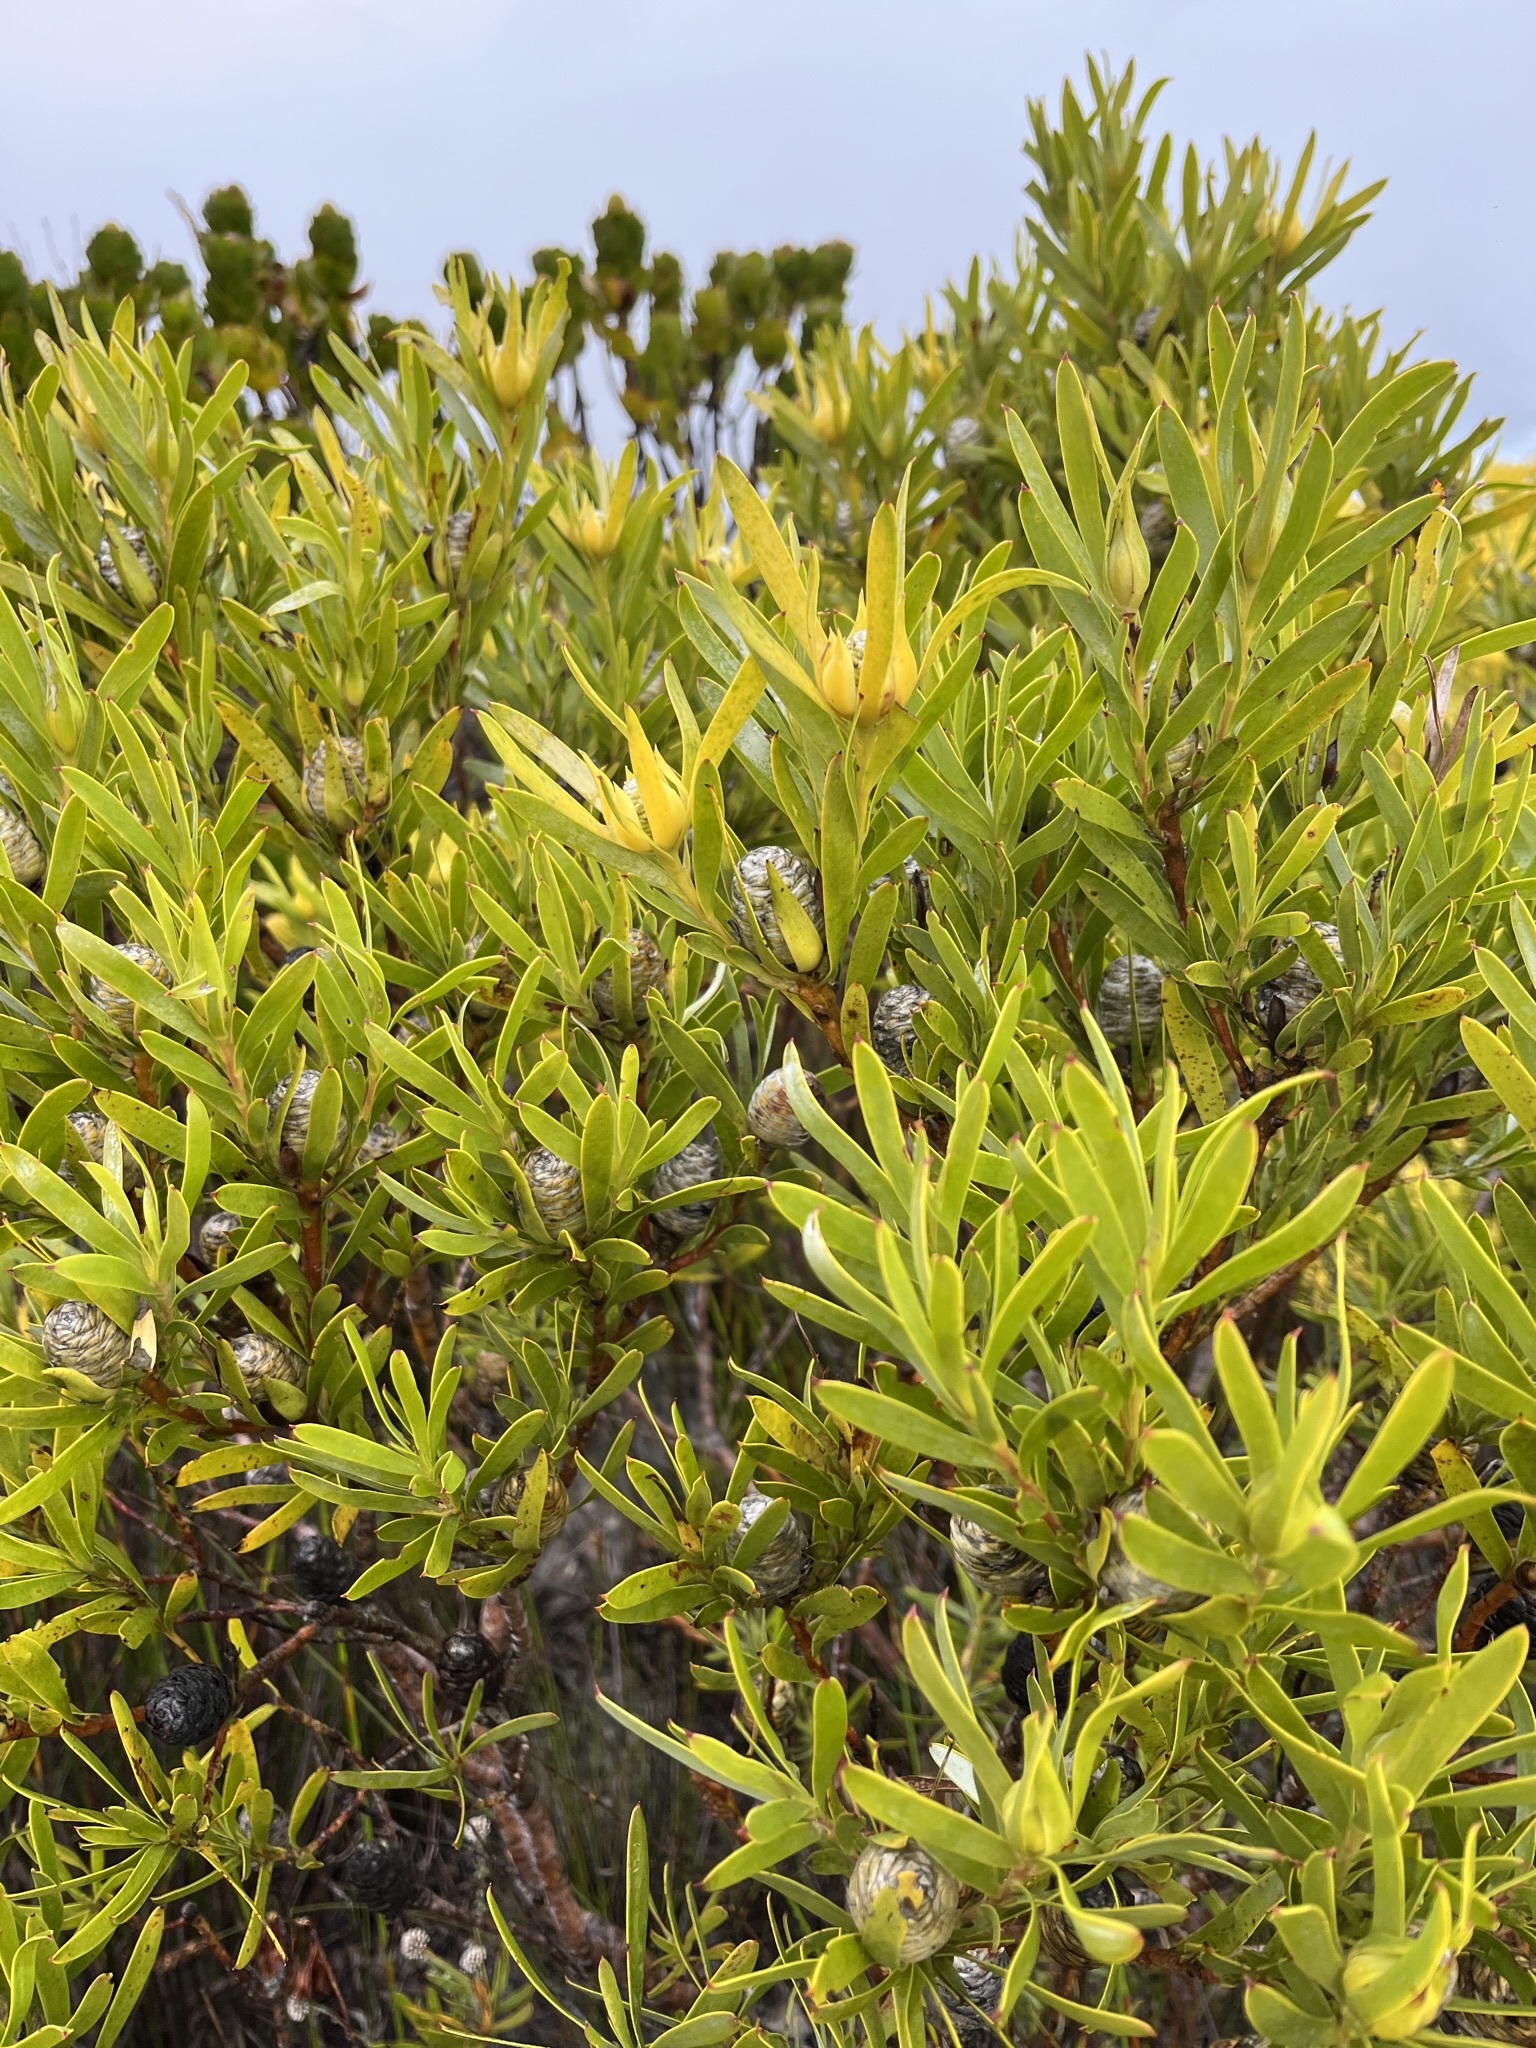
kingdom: Plantae
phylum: Tracheophyta
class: Magnoliopsida
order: Proteales
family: Proteaceae
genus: Leucadendron
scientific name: Leucadendron meridianum
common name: Limestone conebush
